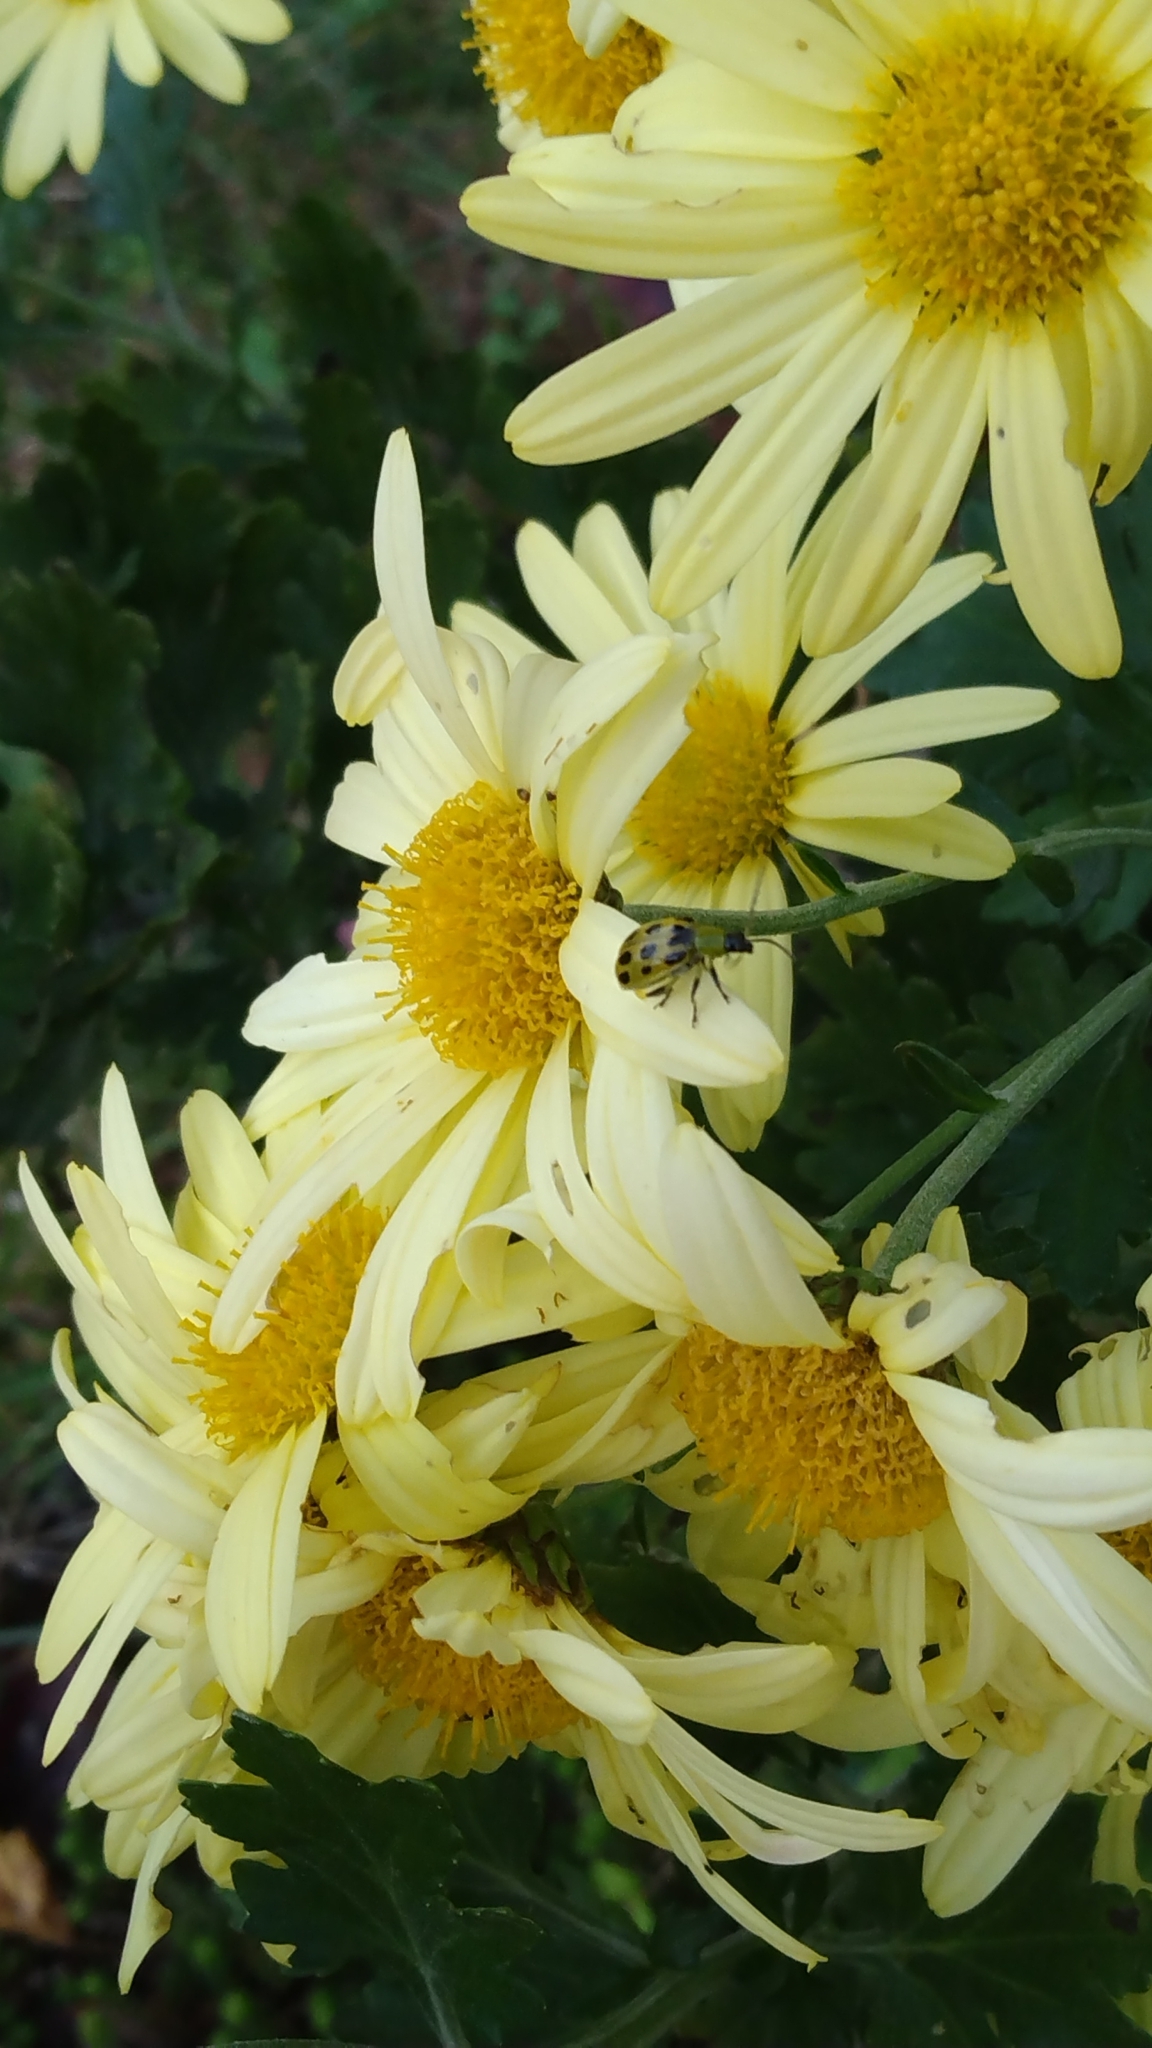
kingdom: Animalia
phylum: Arthropoda
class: Insecta
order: Coleoptera
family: Chrysomelidae
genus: Diabrotica
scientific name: Diabrotica undecimpunctata
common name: Spotted cucumber beetle
